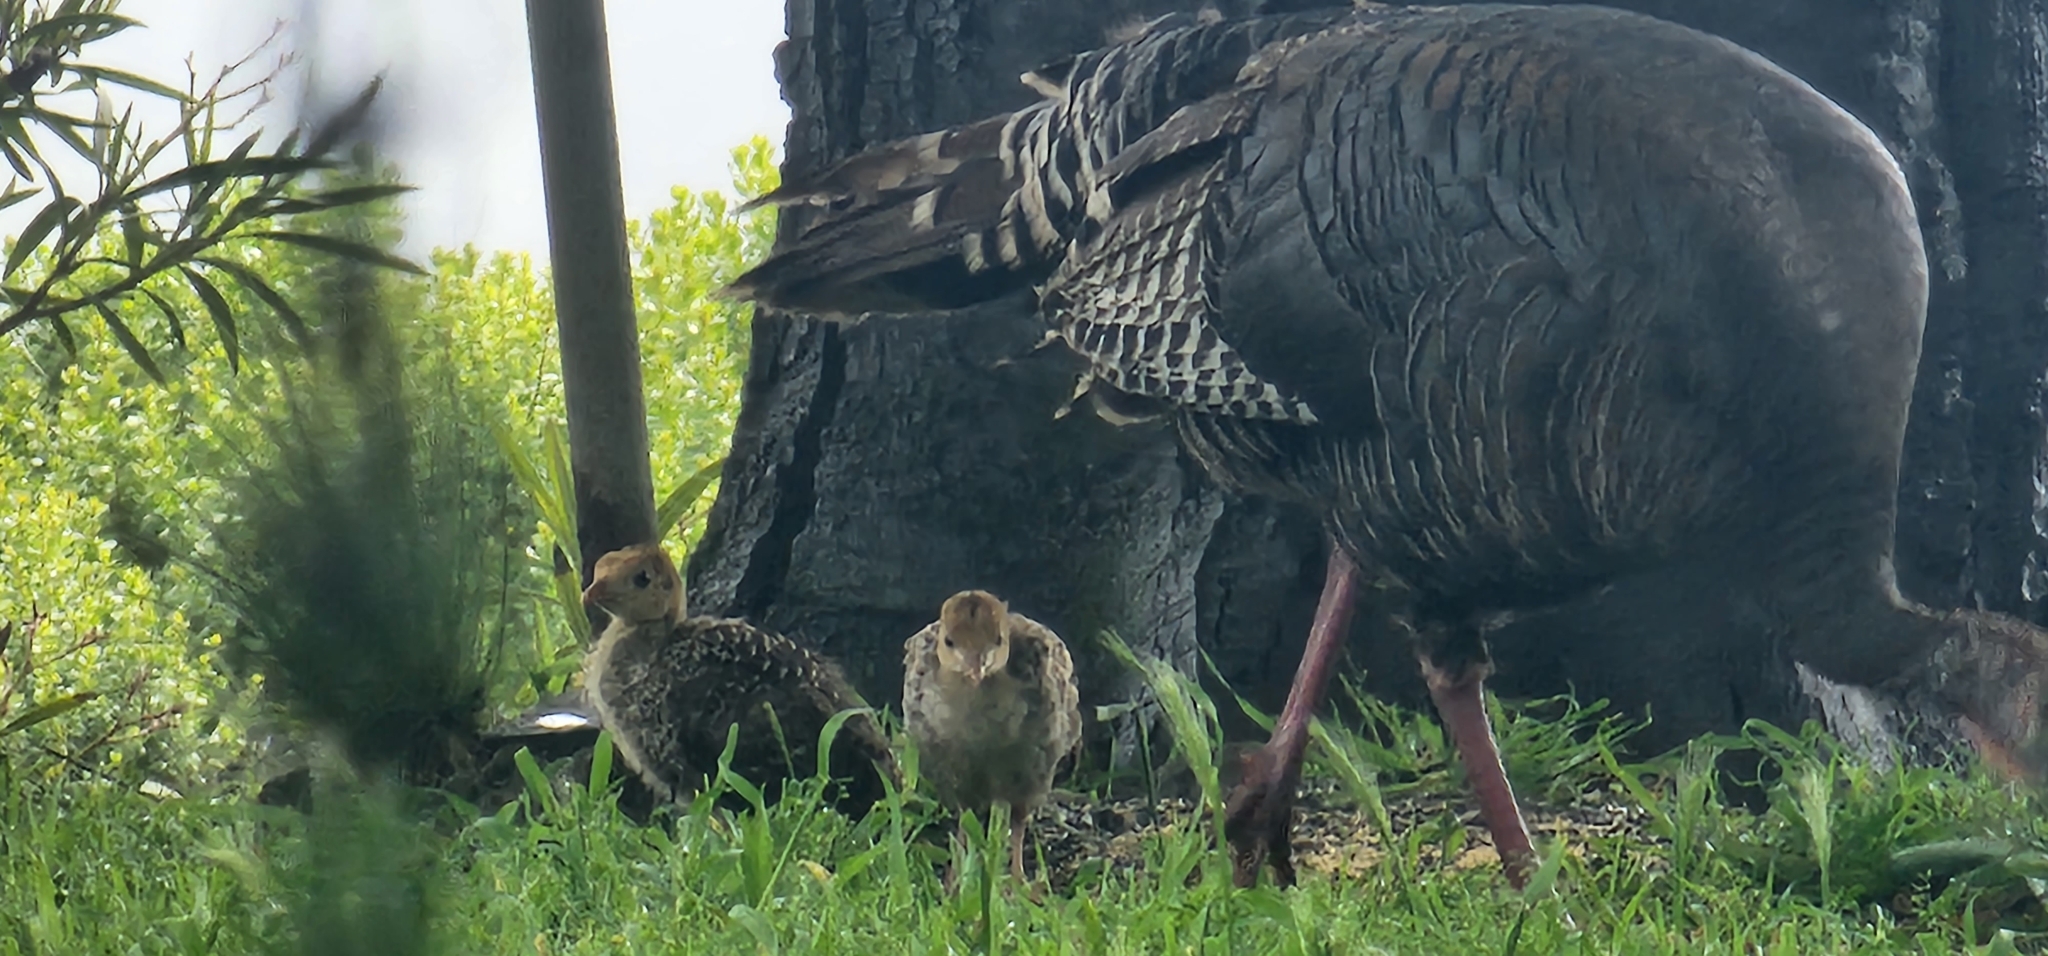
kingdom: Animalia
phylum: Chordata
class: Aves
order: Galliformes
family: Phasianidae
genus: Meleagris
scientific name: Meleagris gallopavo
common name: Wild turkey
